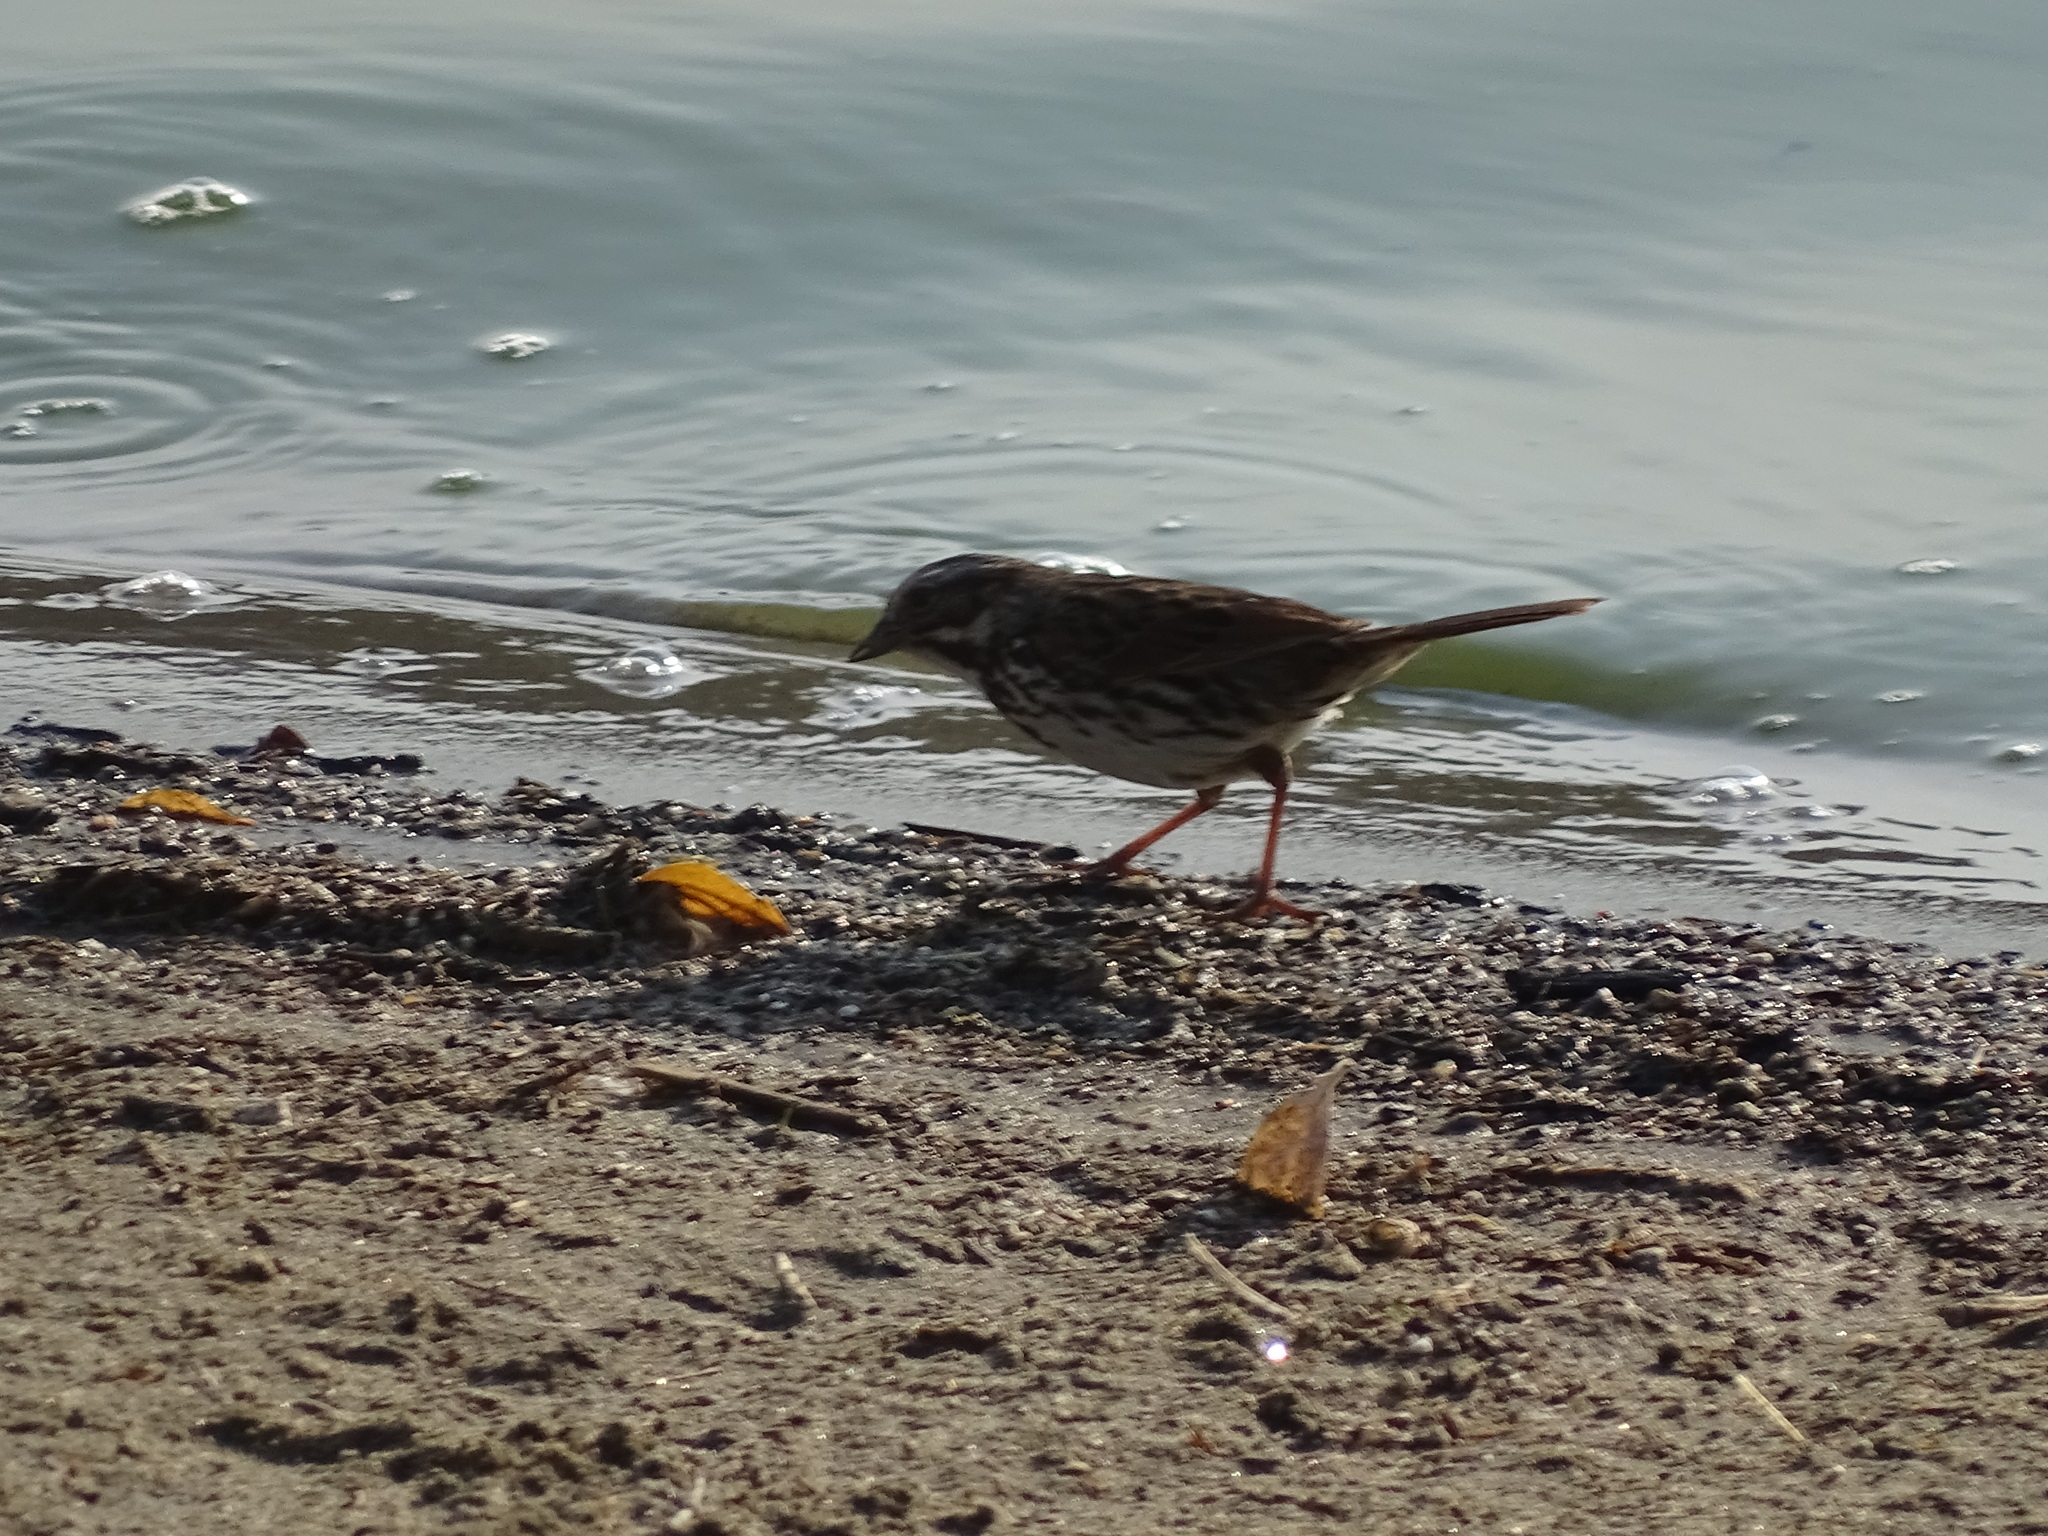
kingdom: Animalia
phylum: Chordata
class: Aves
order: Passeriformes
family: Passerellidae
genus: Melospiza
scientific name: Melospiza melodia
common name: Song sparrow
